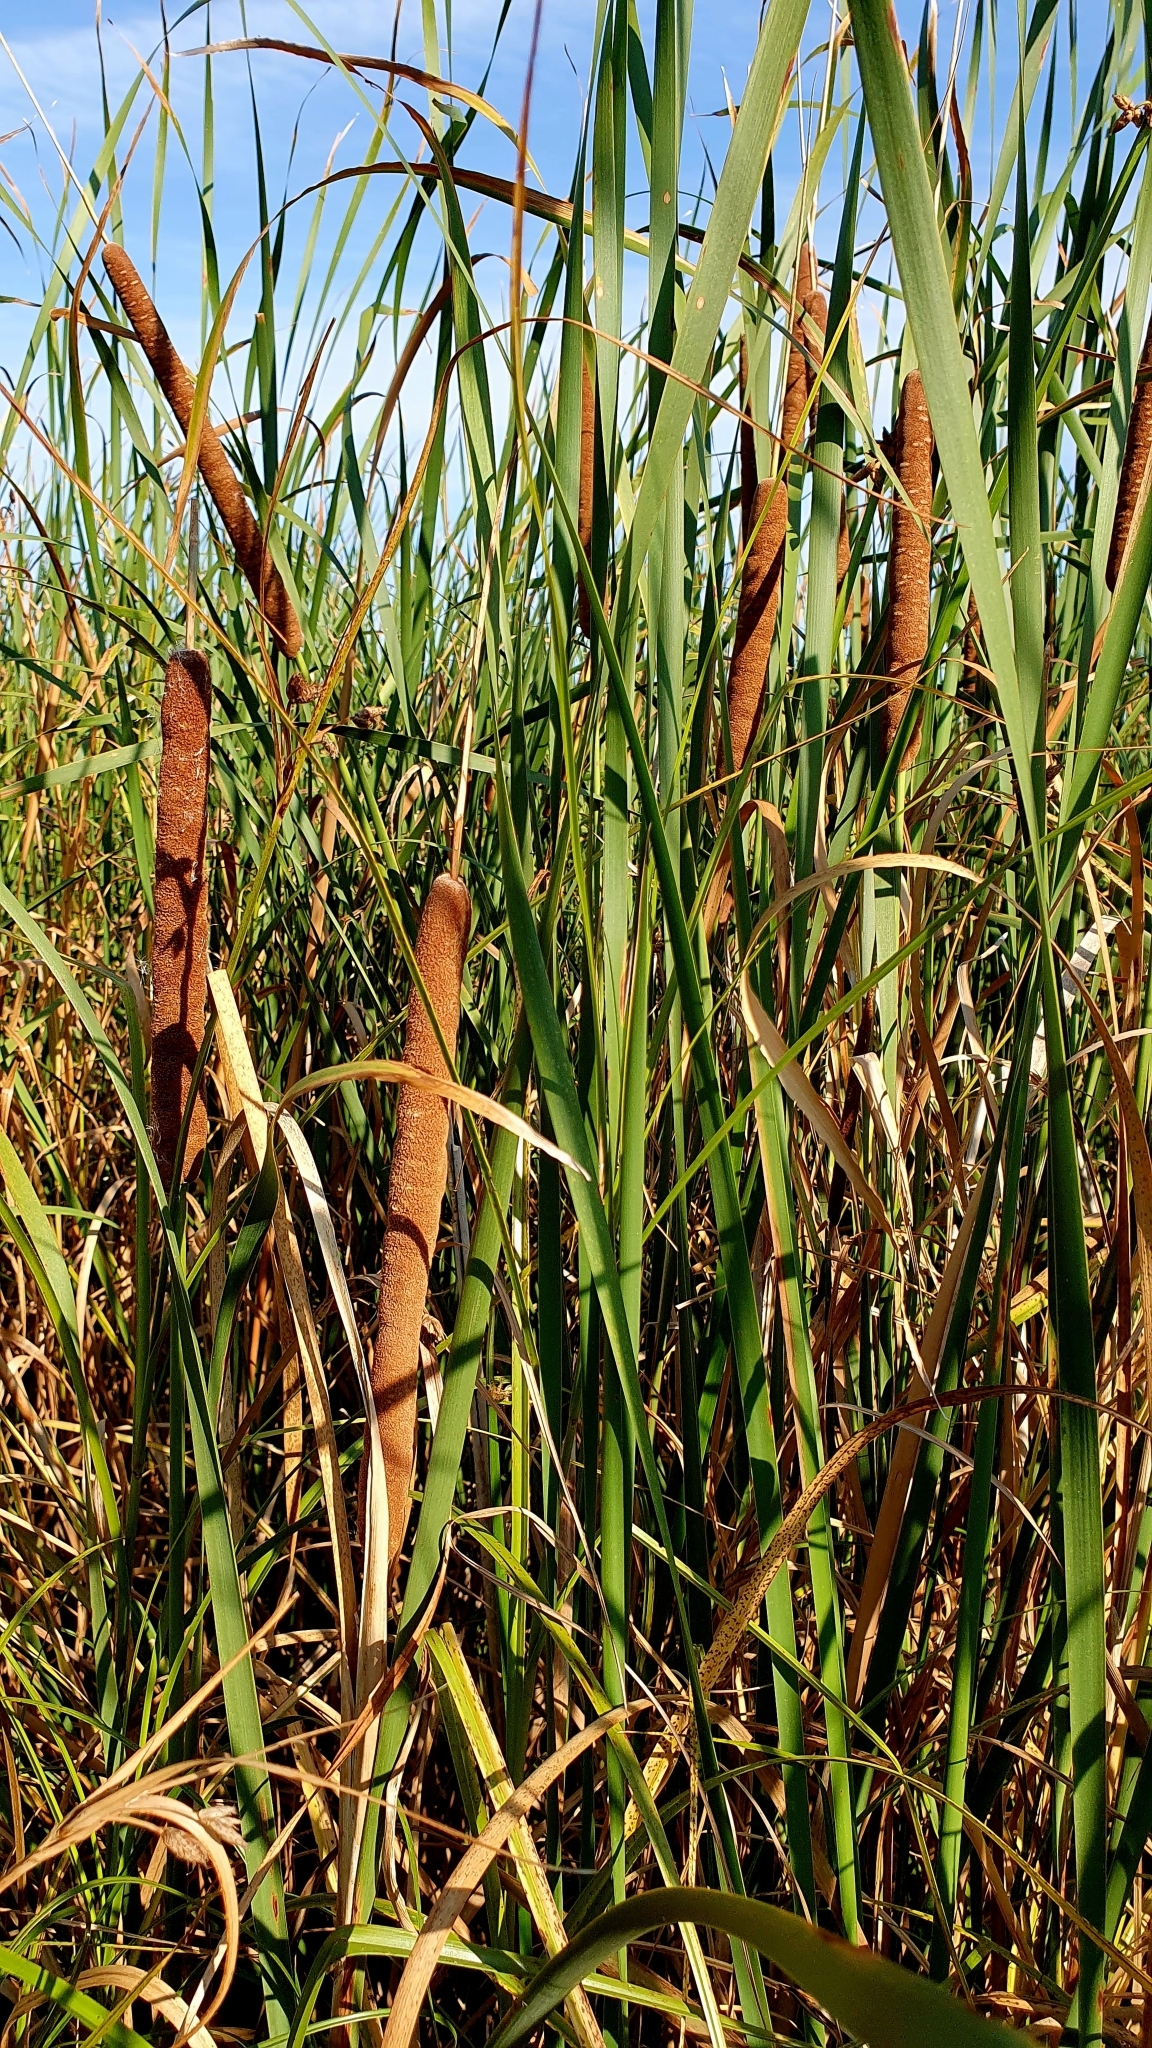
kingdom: Plantae
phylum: Tracheophyta
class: Liliopsida
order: Poales
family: Typhaceae
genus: Typha
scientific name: Typha angustifolia
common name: Lesser bulrush
